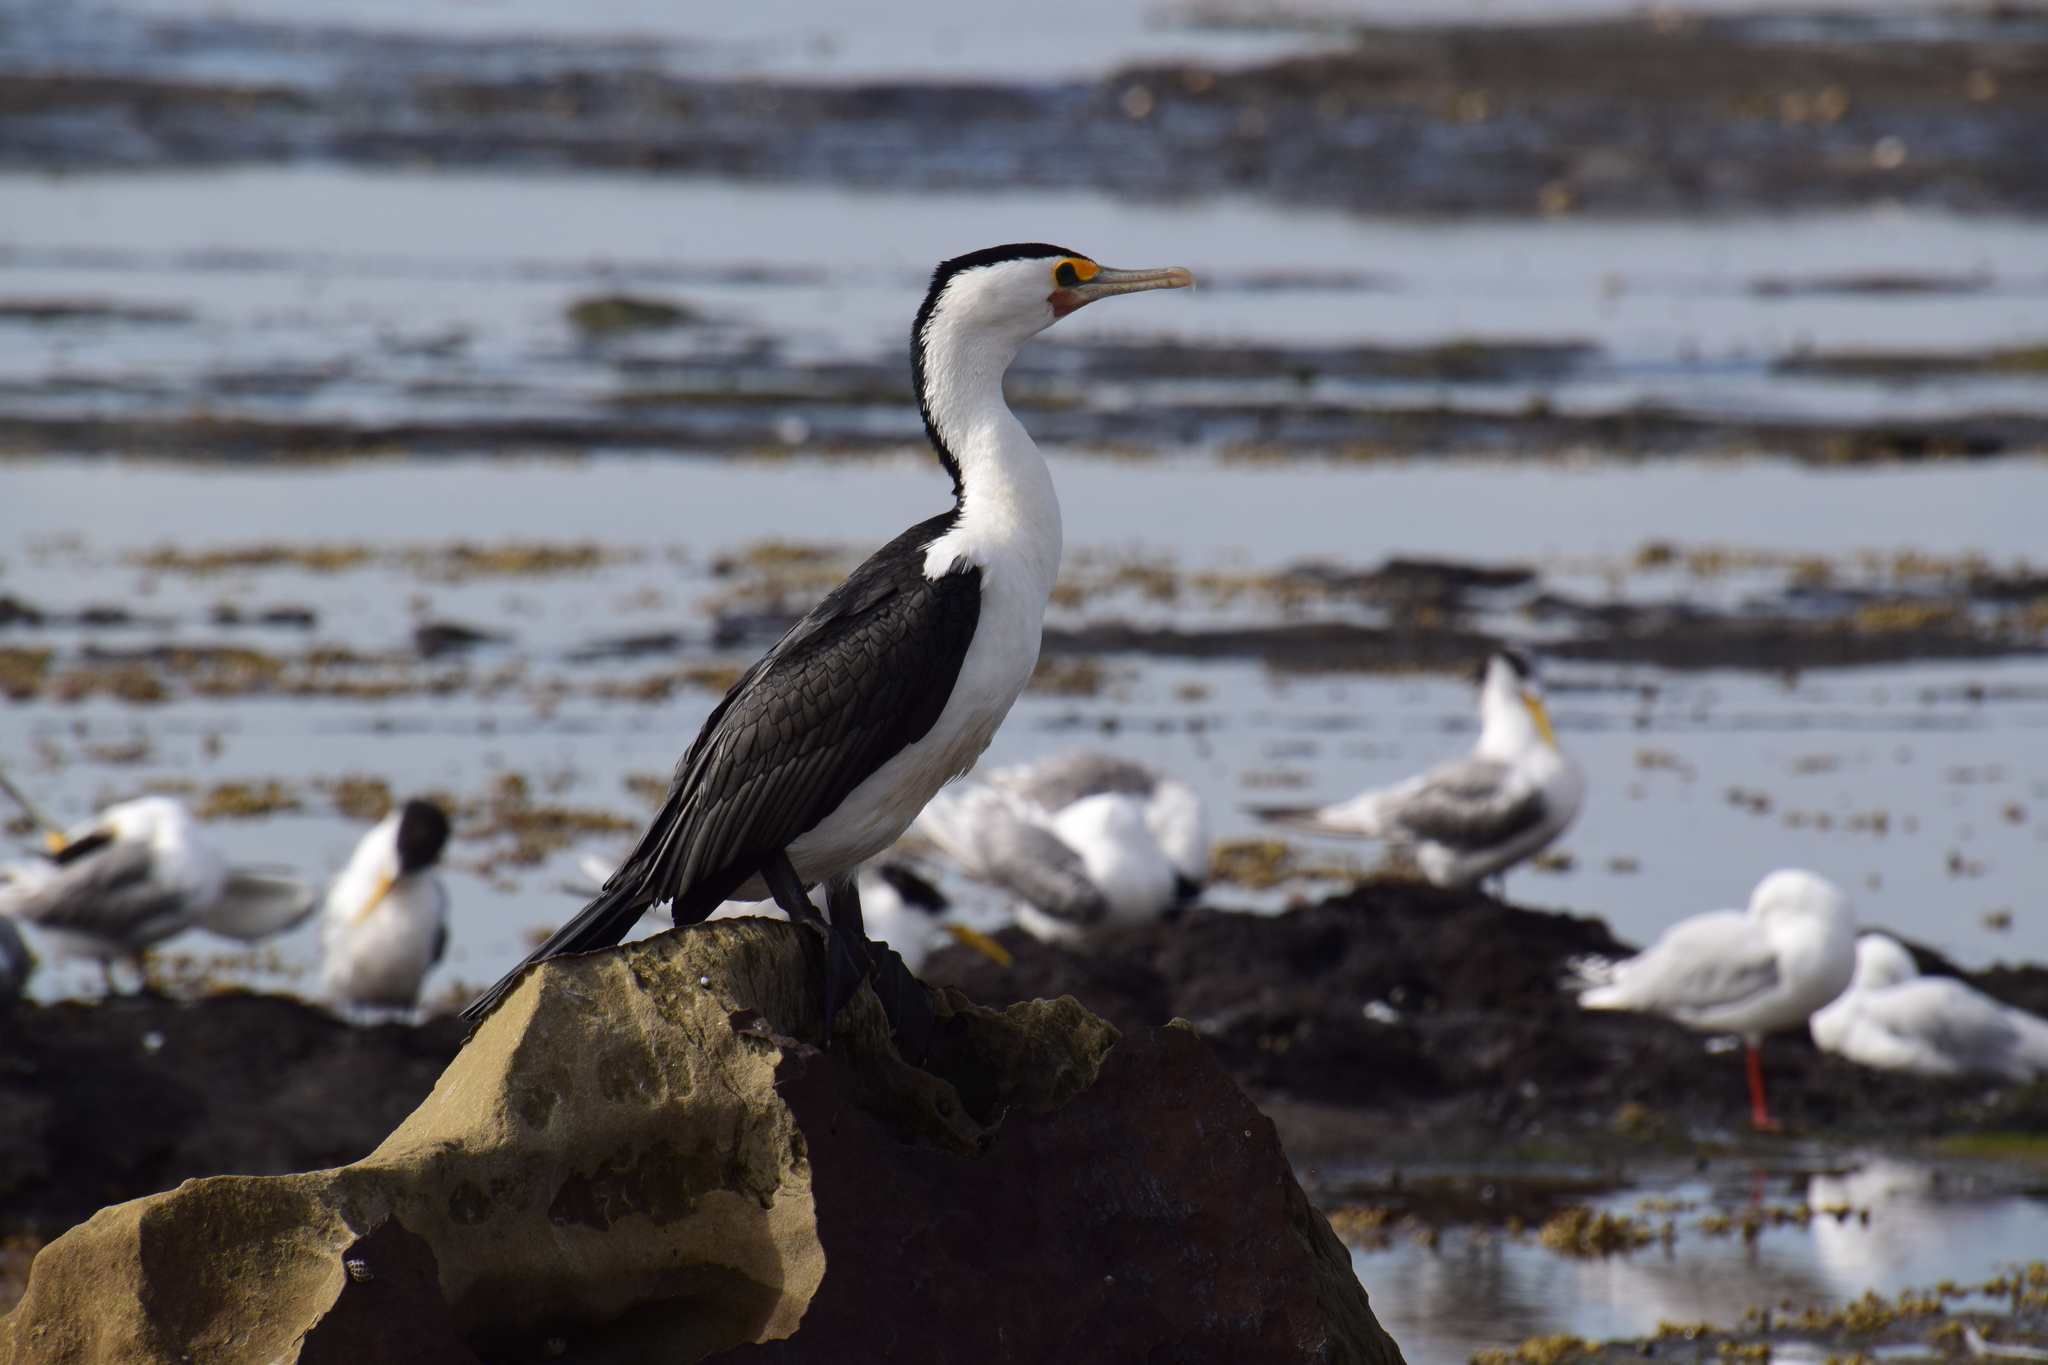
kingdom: Animalia
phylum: Chordata
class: Aves
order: Suliformes
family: Phalacrocoracidae
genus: Phalacrocorax
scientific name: Phalacrocorax varius
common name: Pied cormorant
